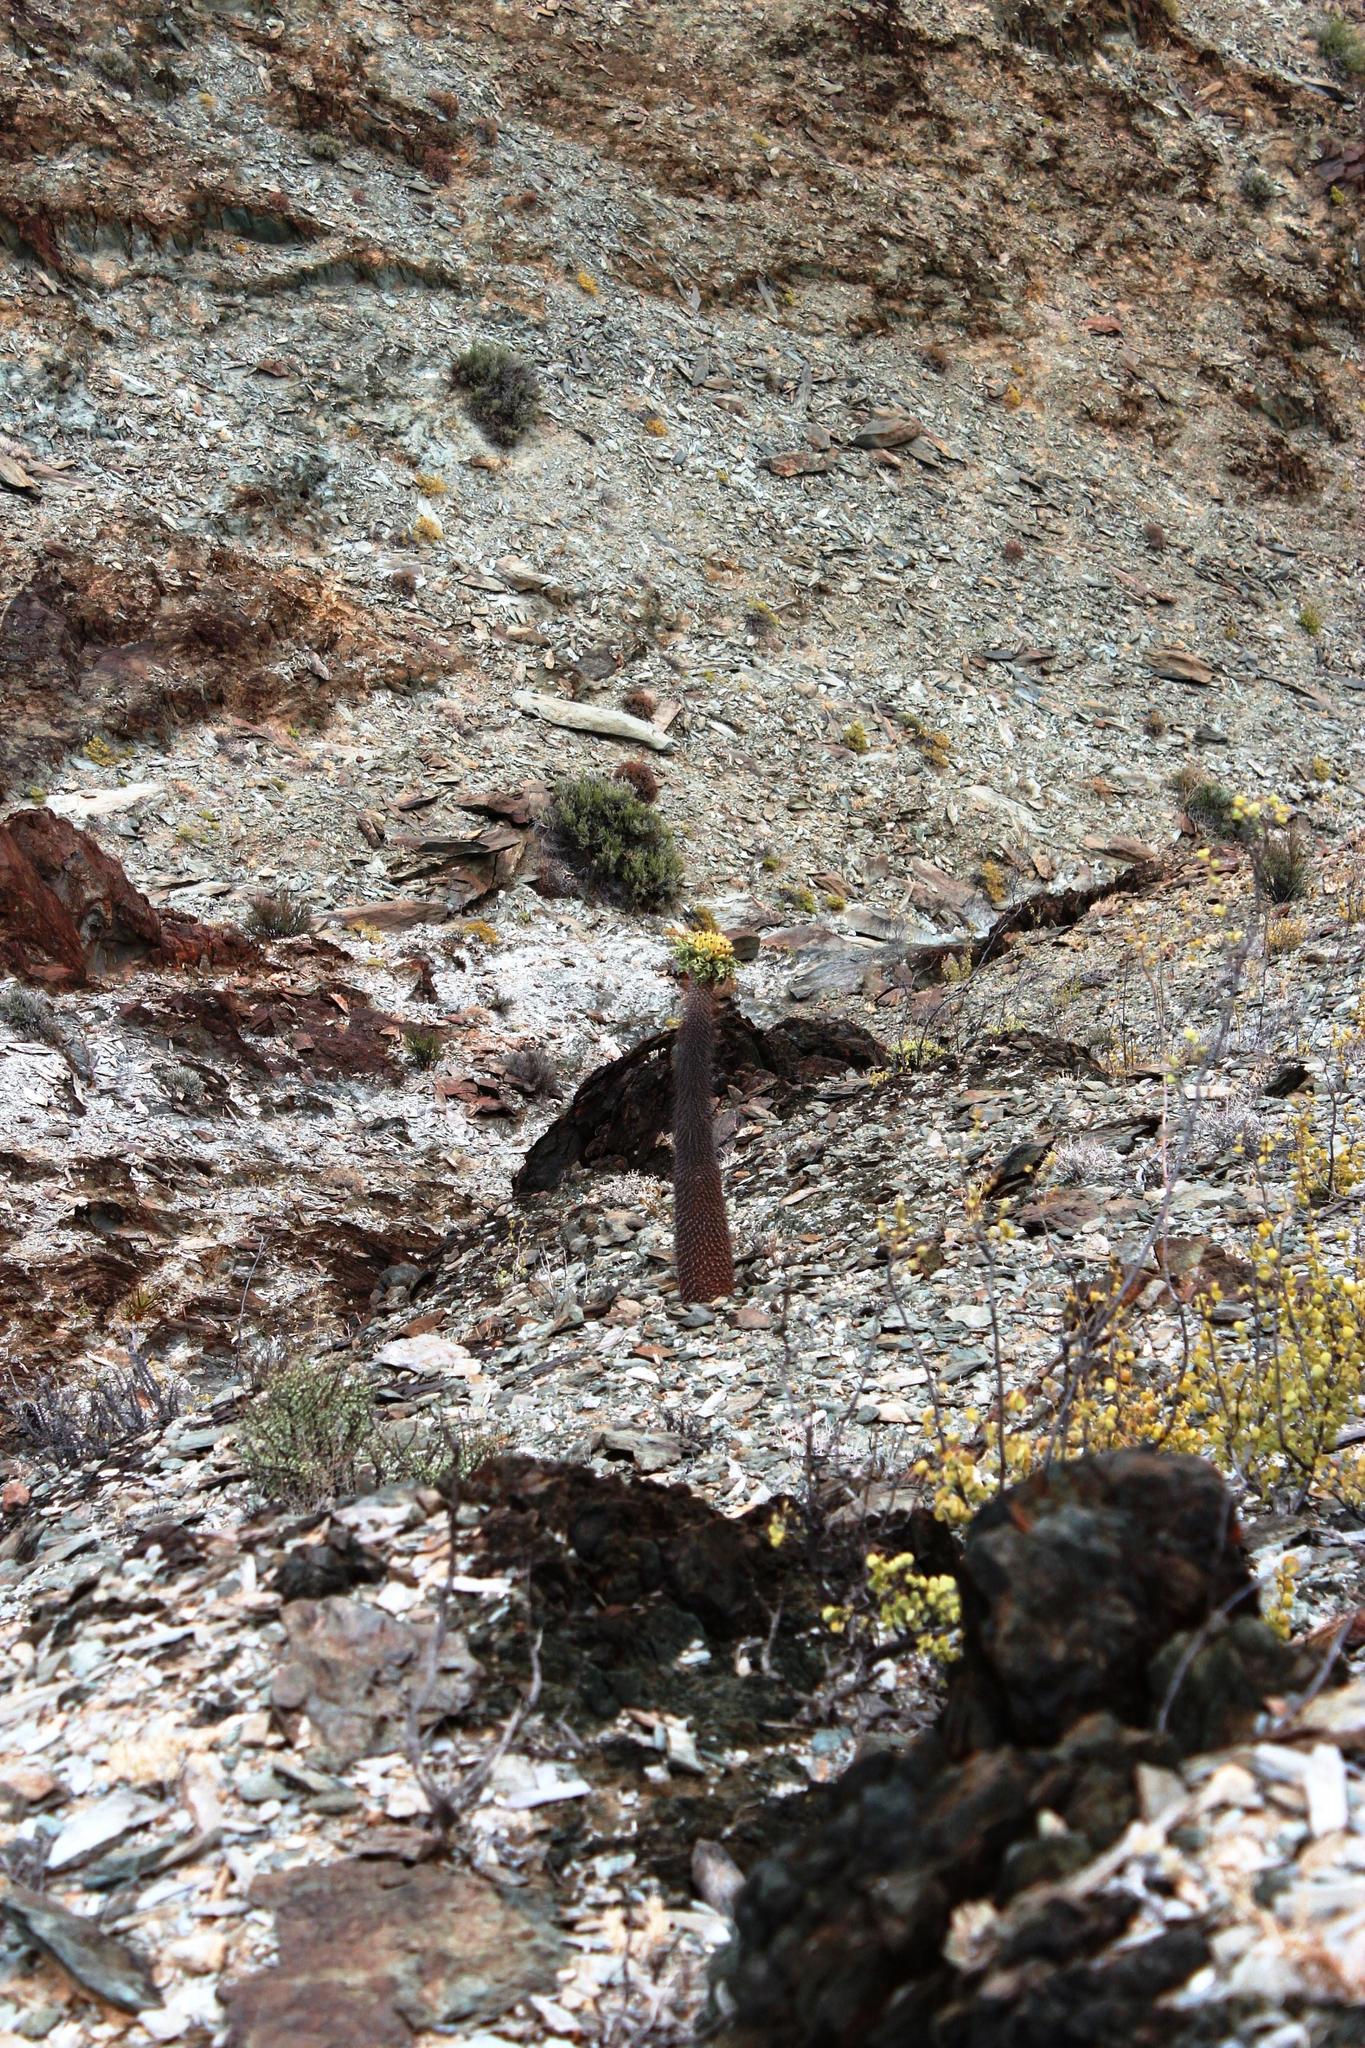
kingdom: Plantae
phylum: Tracheophyta
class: Magnoliopsida
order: Gentianales
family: Apocynaceae
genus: Pachypodium
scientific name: Pachypodium namaquanum
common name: Elephant's trunk
